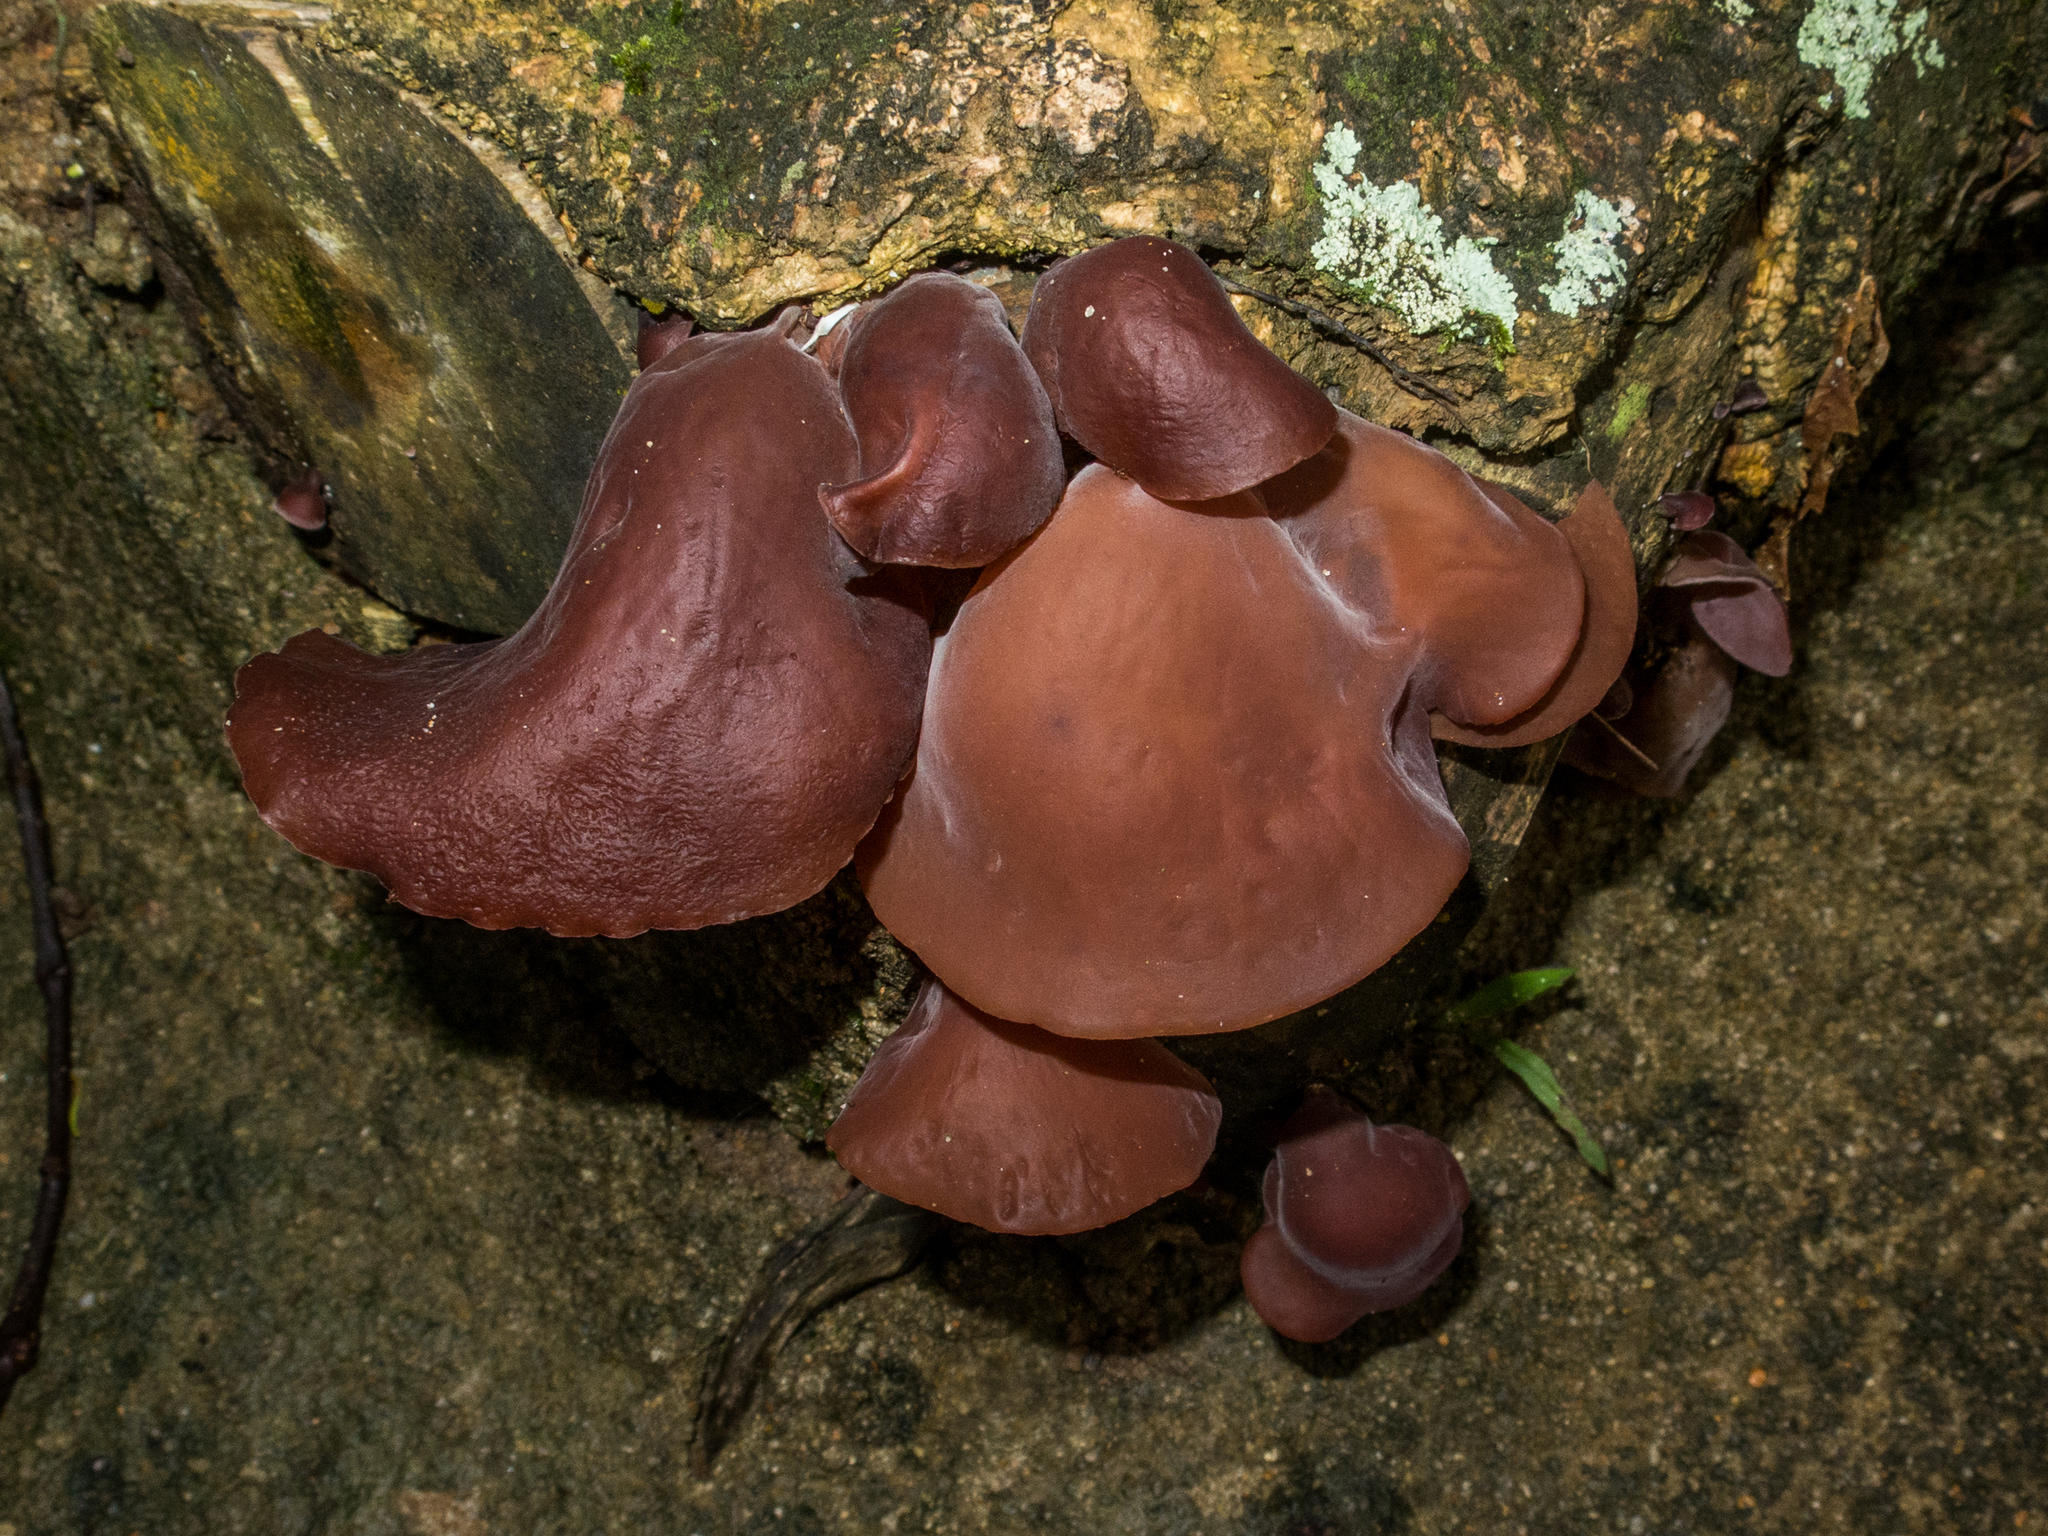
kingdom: Fungi
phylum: Basidiomycota
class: Agaricomycetes
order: Auriculariales
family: Auriculariaceae
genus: Auricularia
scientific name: Auricularia fuscosuccinea
